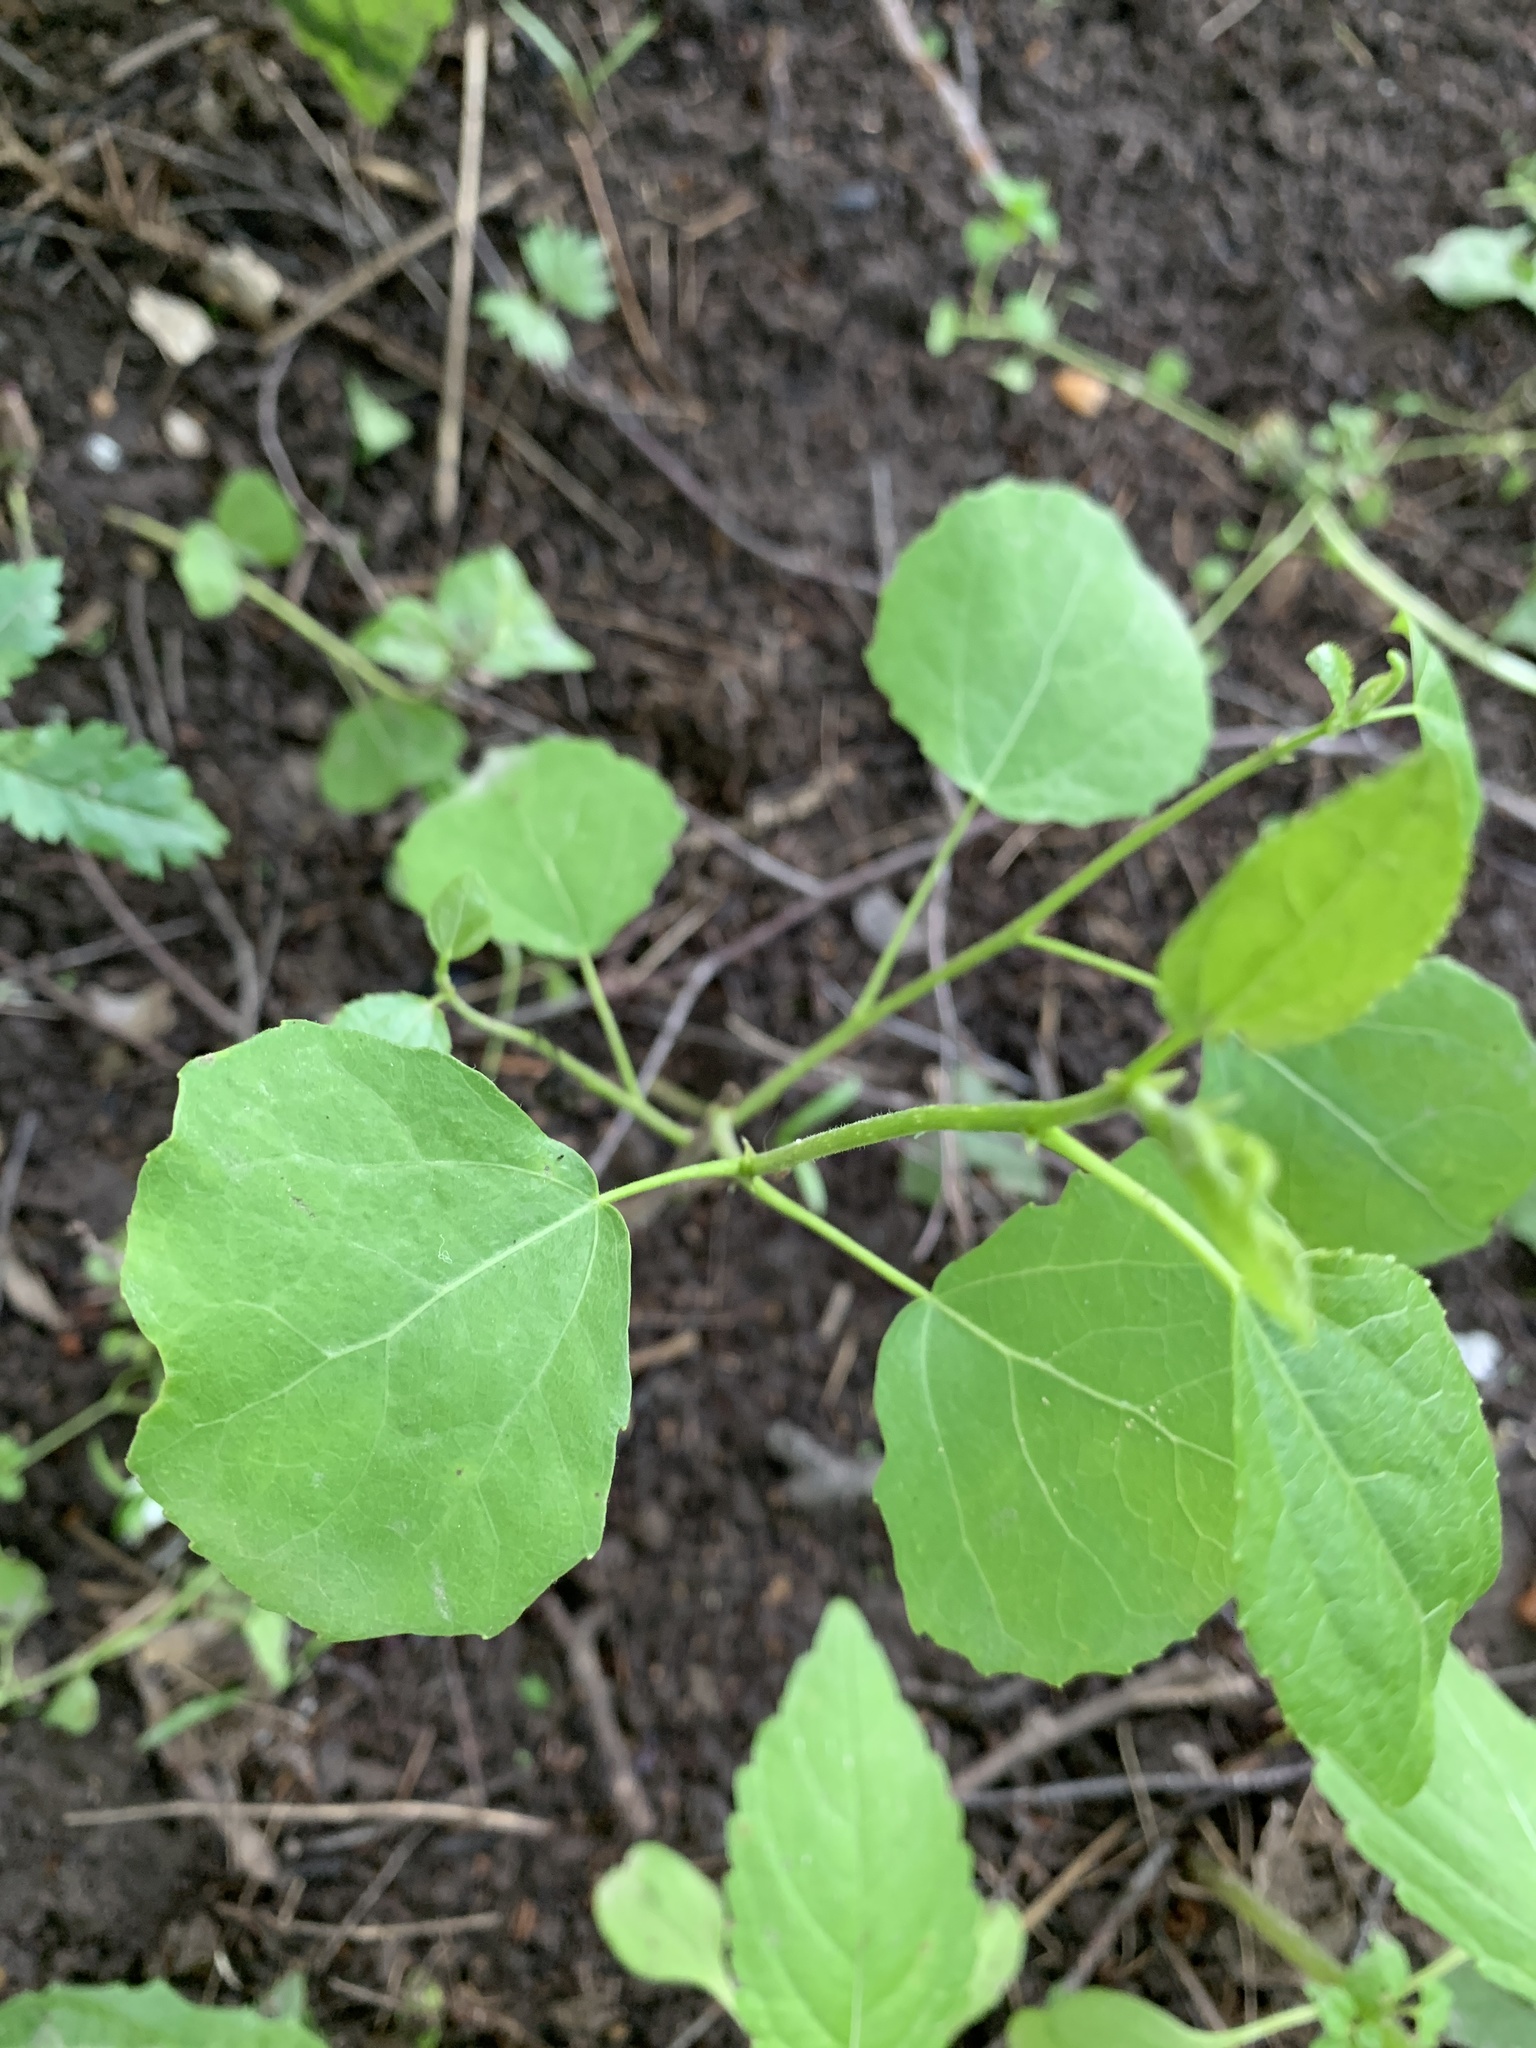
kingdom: Plantae
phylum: Tracheophyta
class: Magnoliopsida
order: Malpighiales
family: Salicaceae
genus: Populus
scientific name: Populus tremula
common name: European aspen
